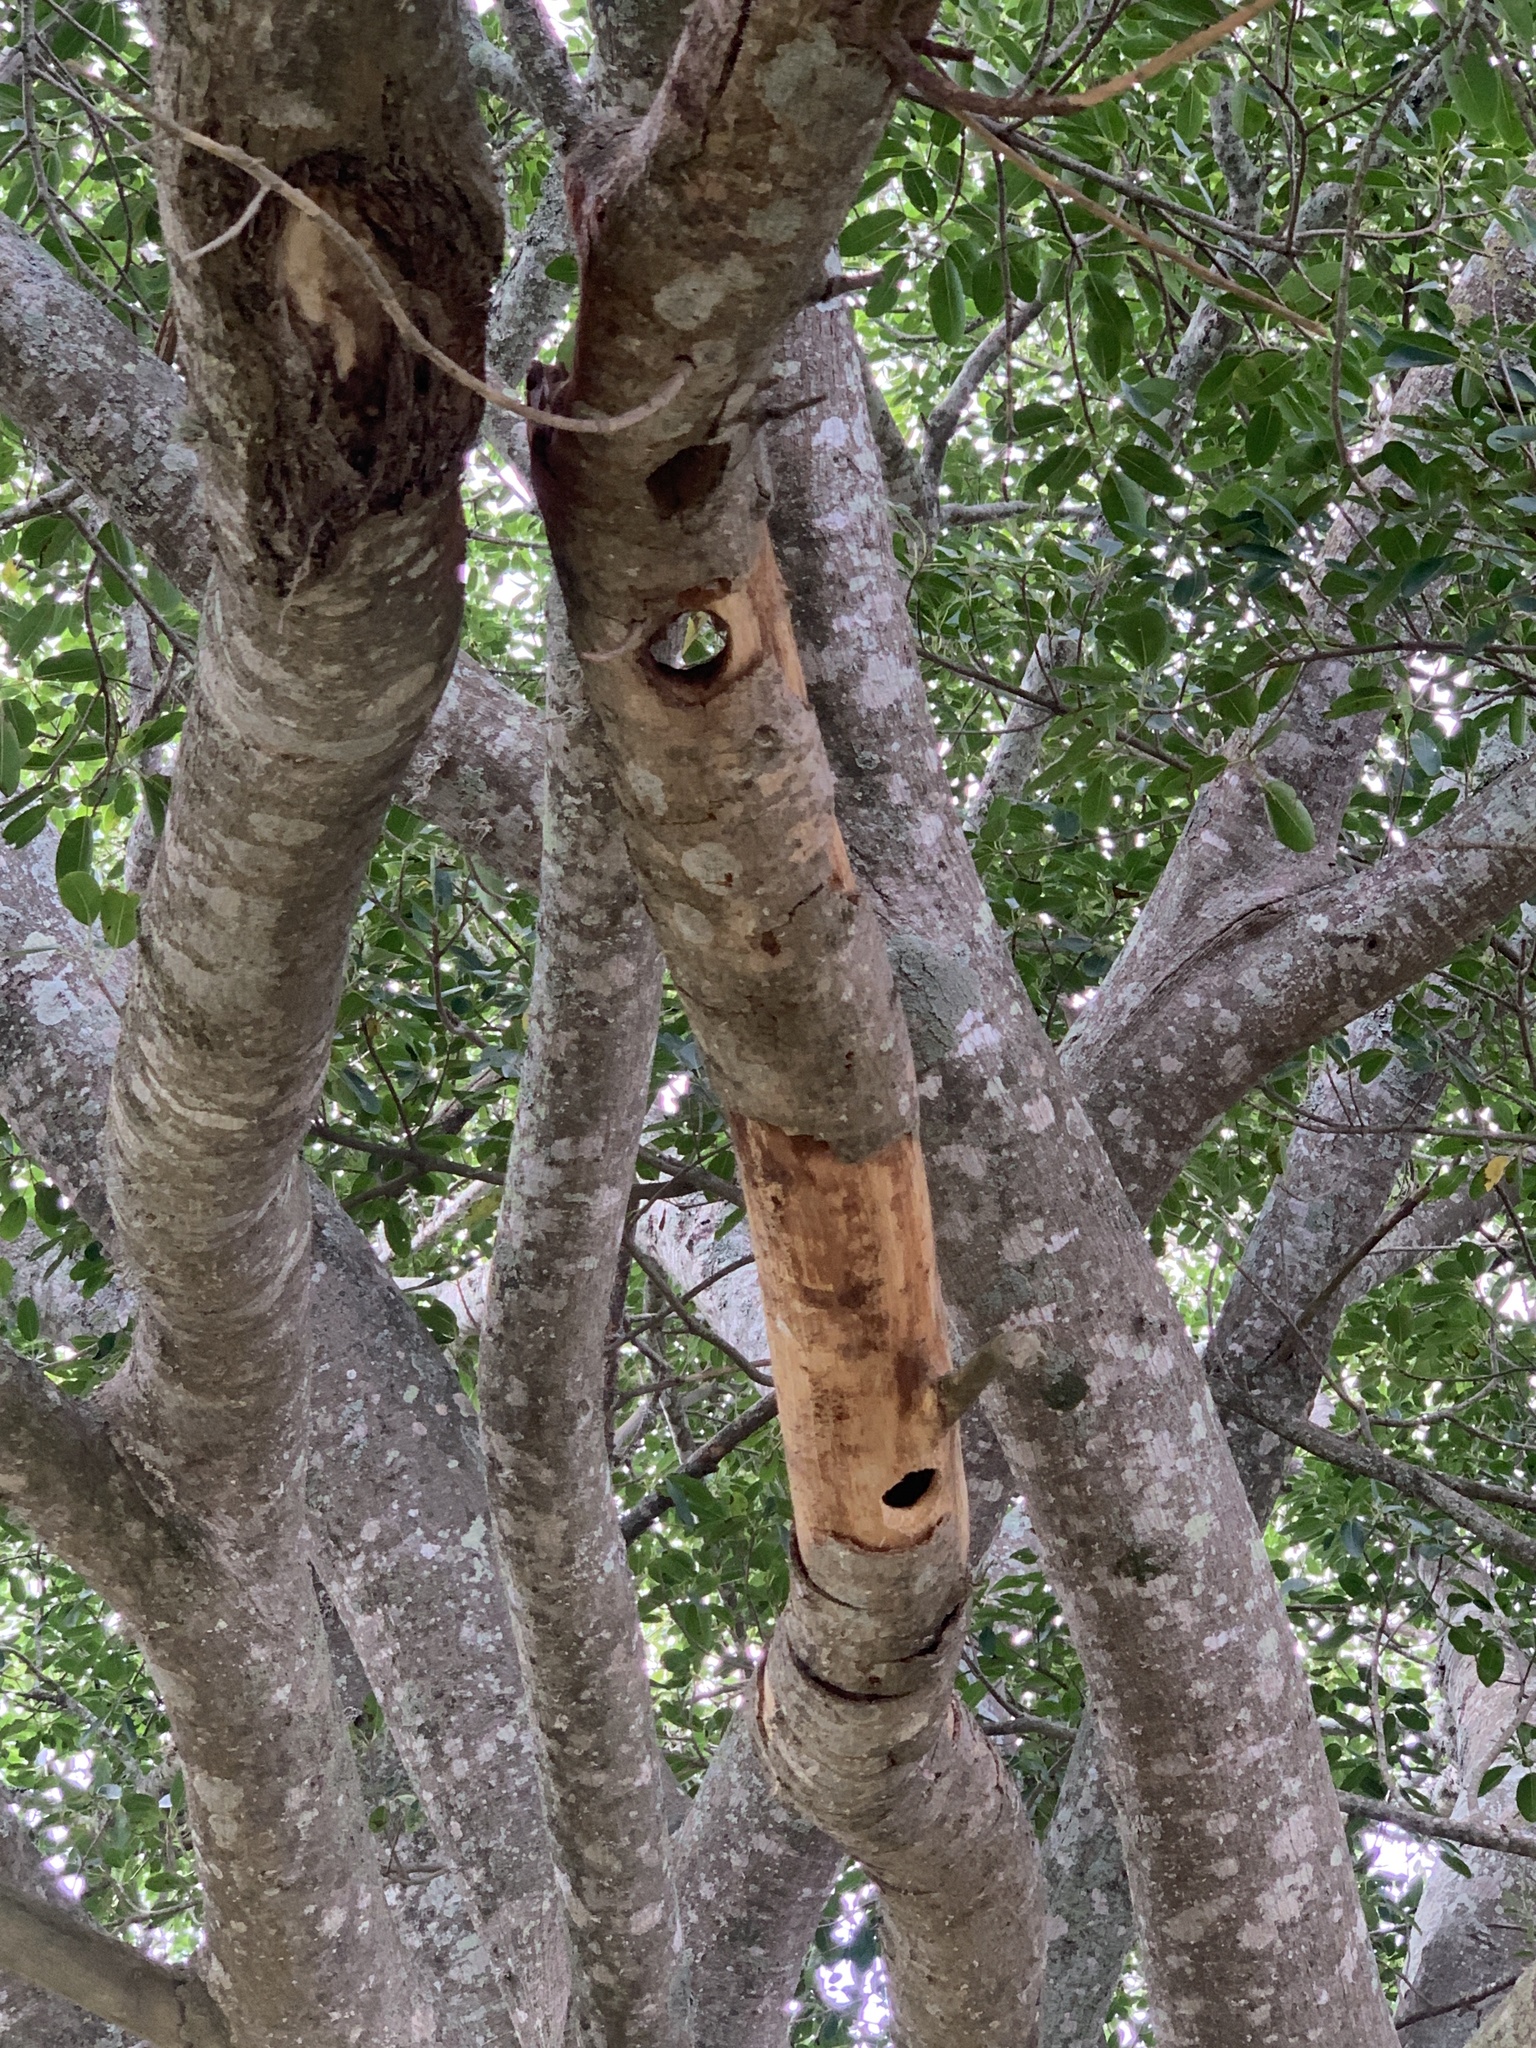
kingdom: Animalia
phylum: Chordata
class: Aves
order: Piciformes
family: Picidae
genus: Dendropicos
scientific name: Dendropicos fuscescens
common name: Cardinal woodpecker
